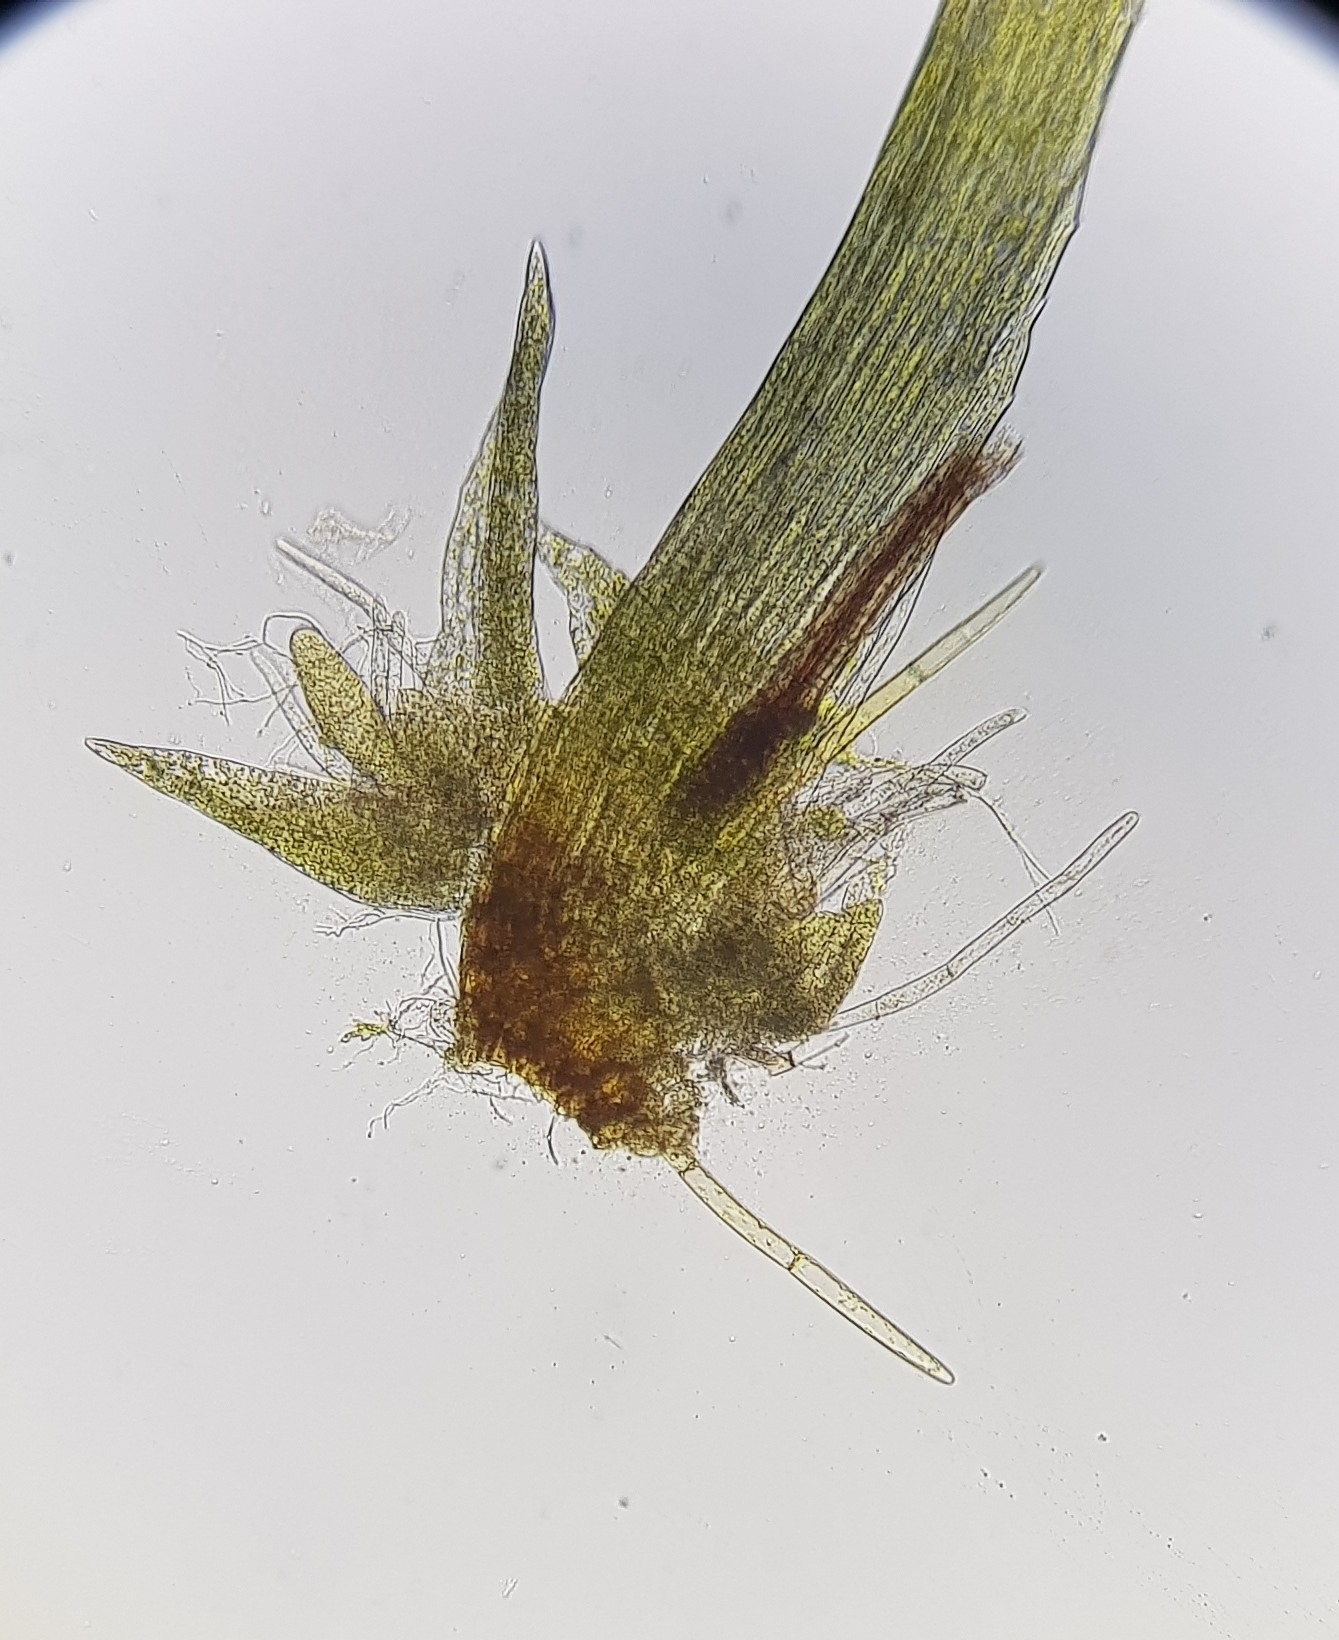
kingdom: Plantae
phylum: Bryophyta
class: Bryopsida
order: Orthodontiales
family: Orthodontiaceae
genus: Orthodontium
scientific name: Orthodontium lineare
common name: Cape thread-moss
